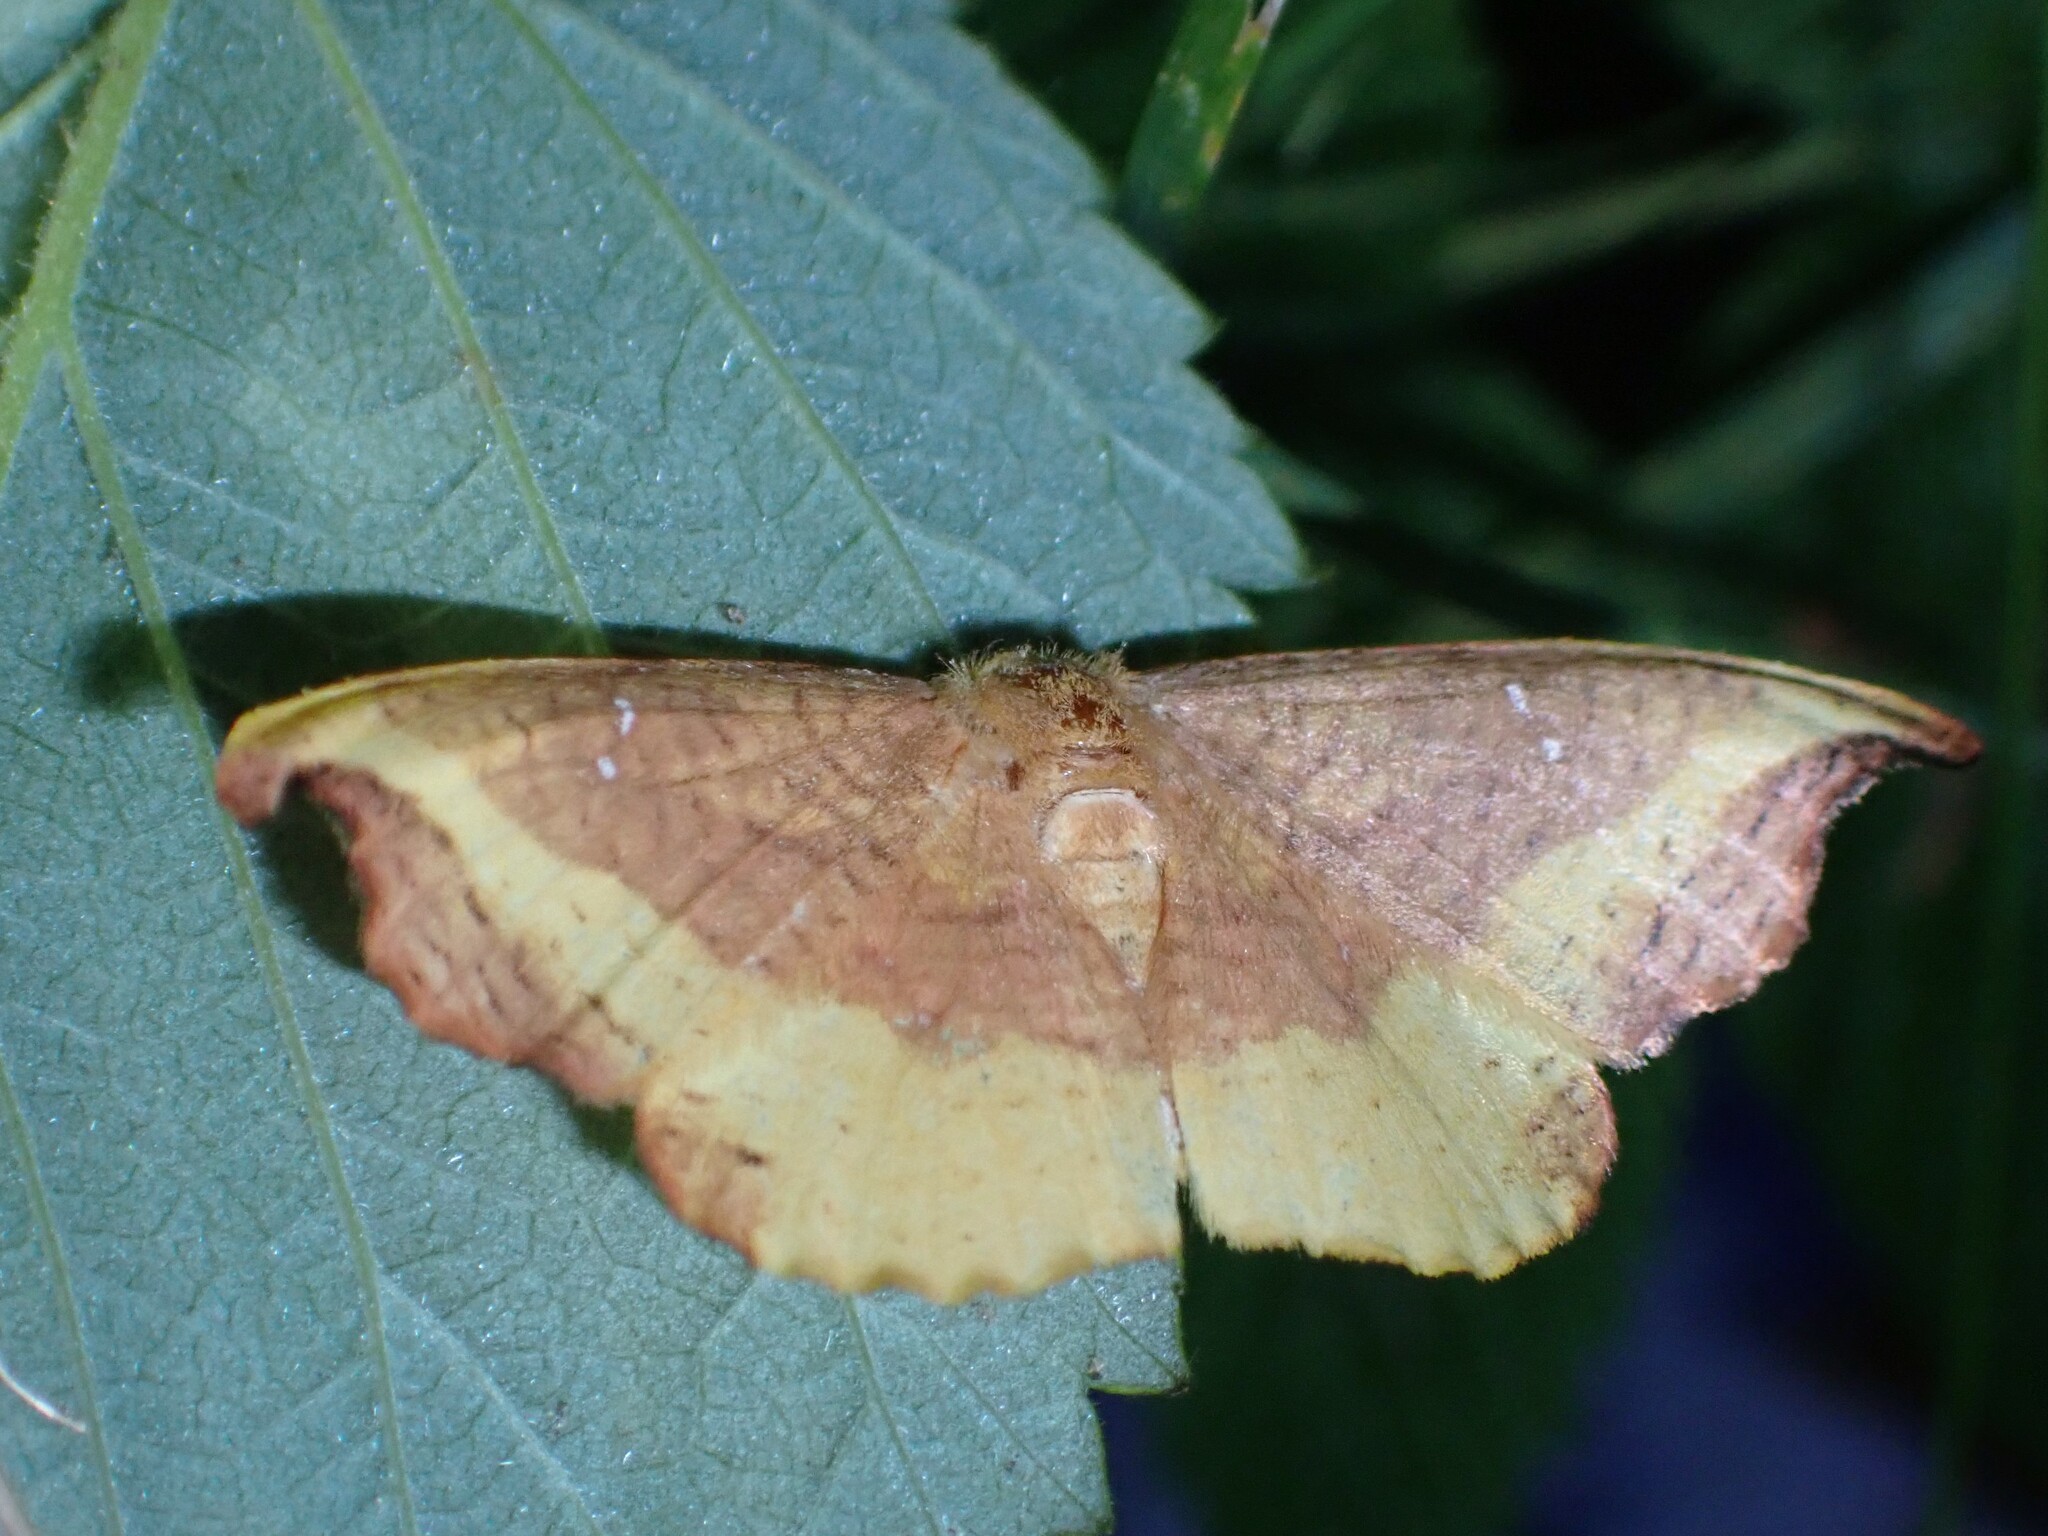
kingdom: Animalia
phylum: Arthropoda
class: Insecta
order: Lepidoptera
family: Drepanidae
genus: Oreta
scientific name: Oreta rosea
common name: Rose hooktip
